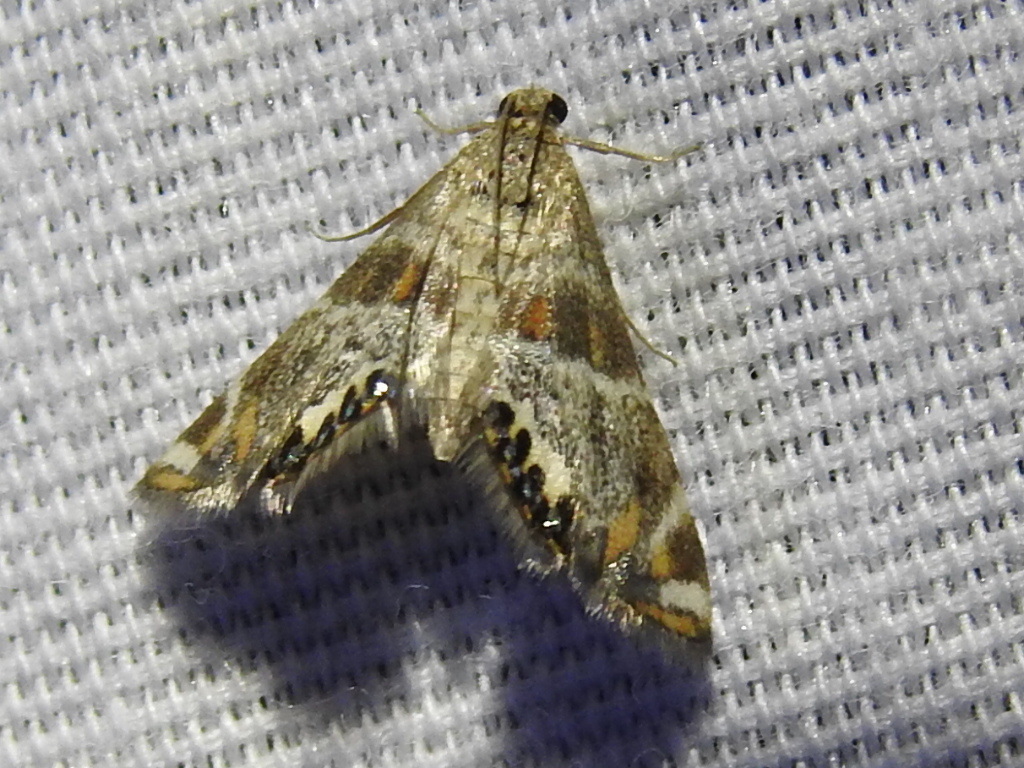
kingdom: Animalia
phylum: Arthropoda
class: Insecta
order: Lepidoptera
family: Crambidae
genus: Petrophila
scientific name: Petrophila jaliscalis
